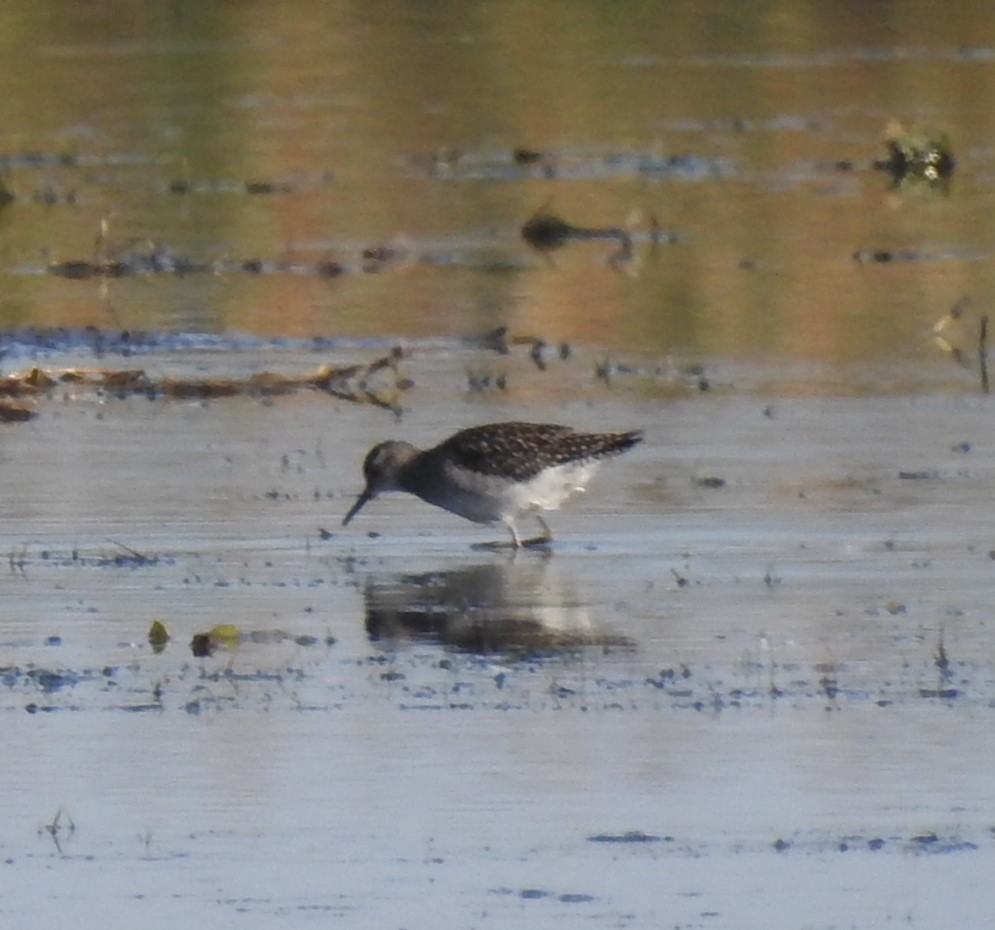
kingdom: Animalia
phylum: Chordata
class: Aves
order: Charadriiformes
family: Scolopacidae
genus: Tringa
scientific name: Tringa glareola
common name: Wood sandpiper
